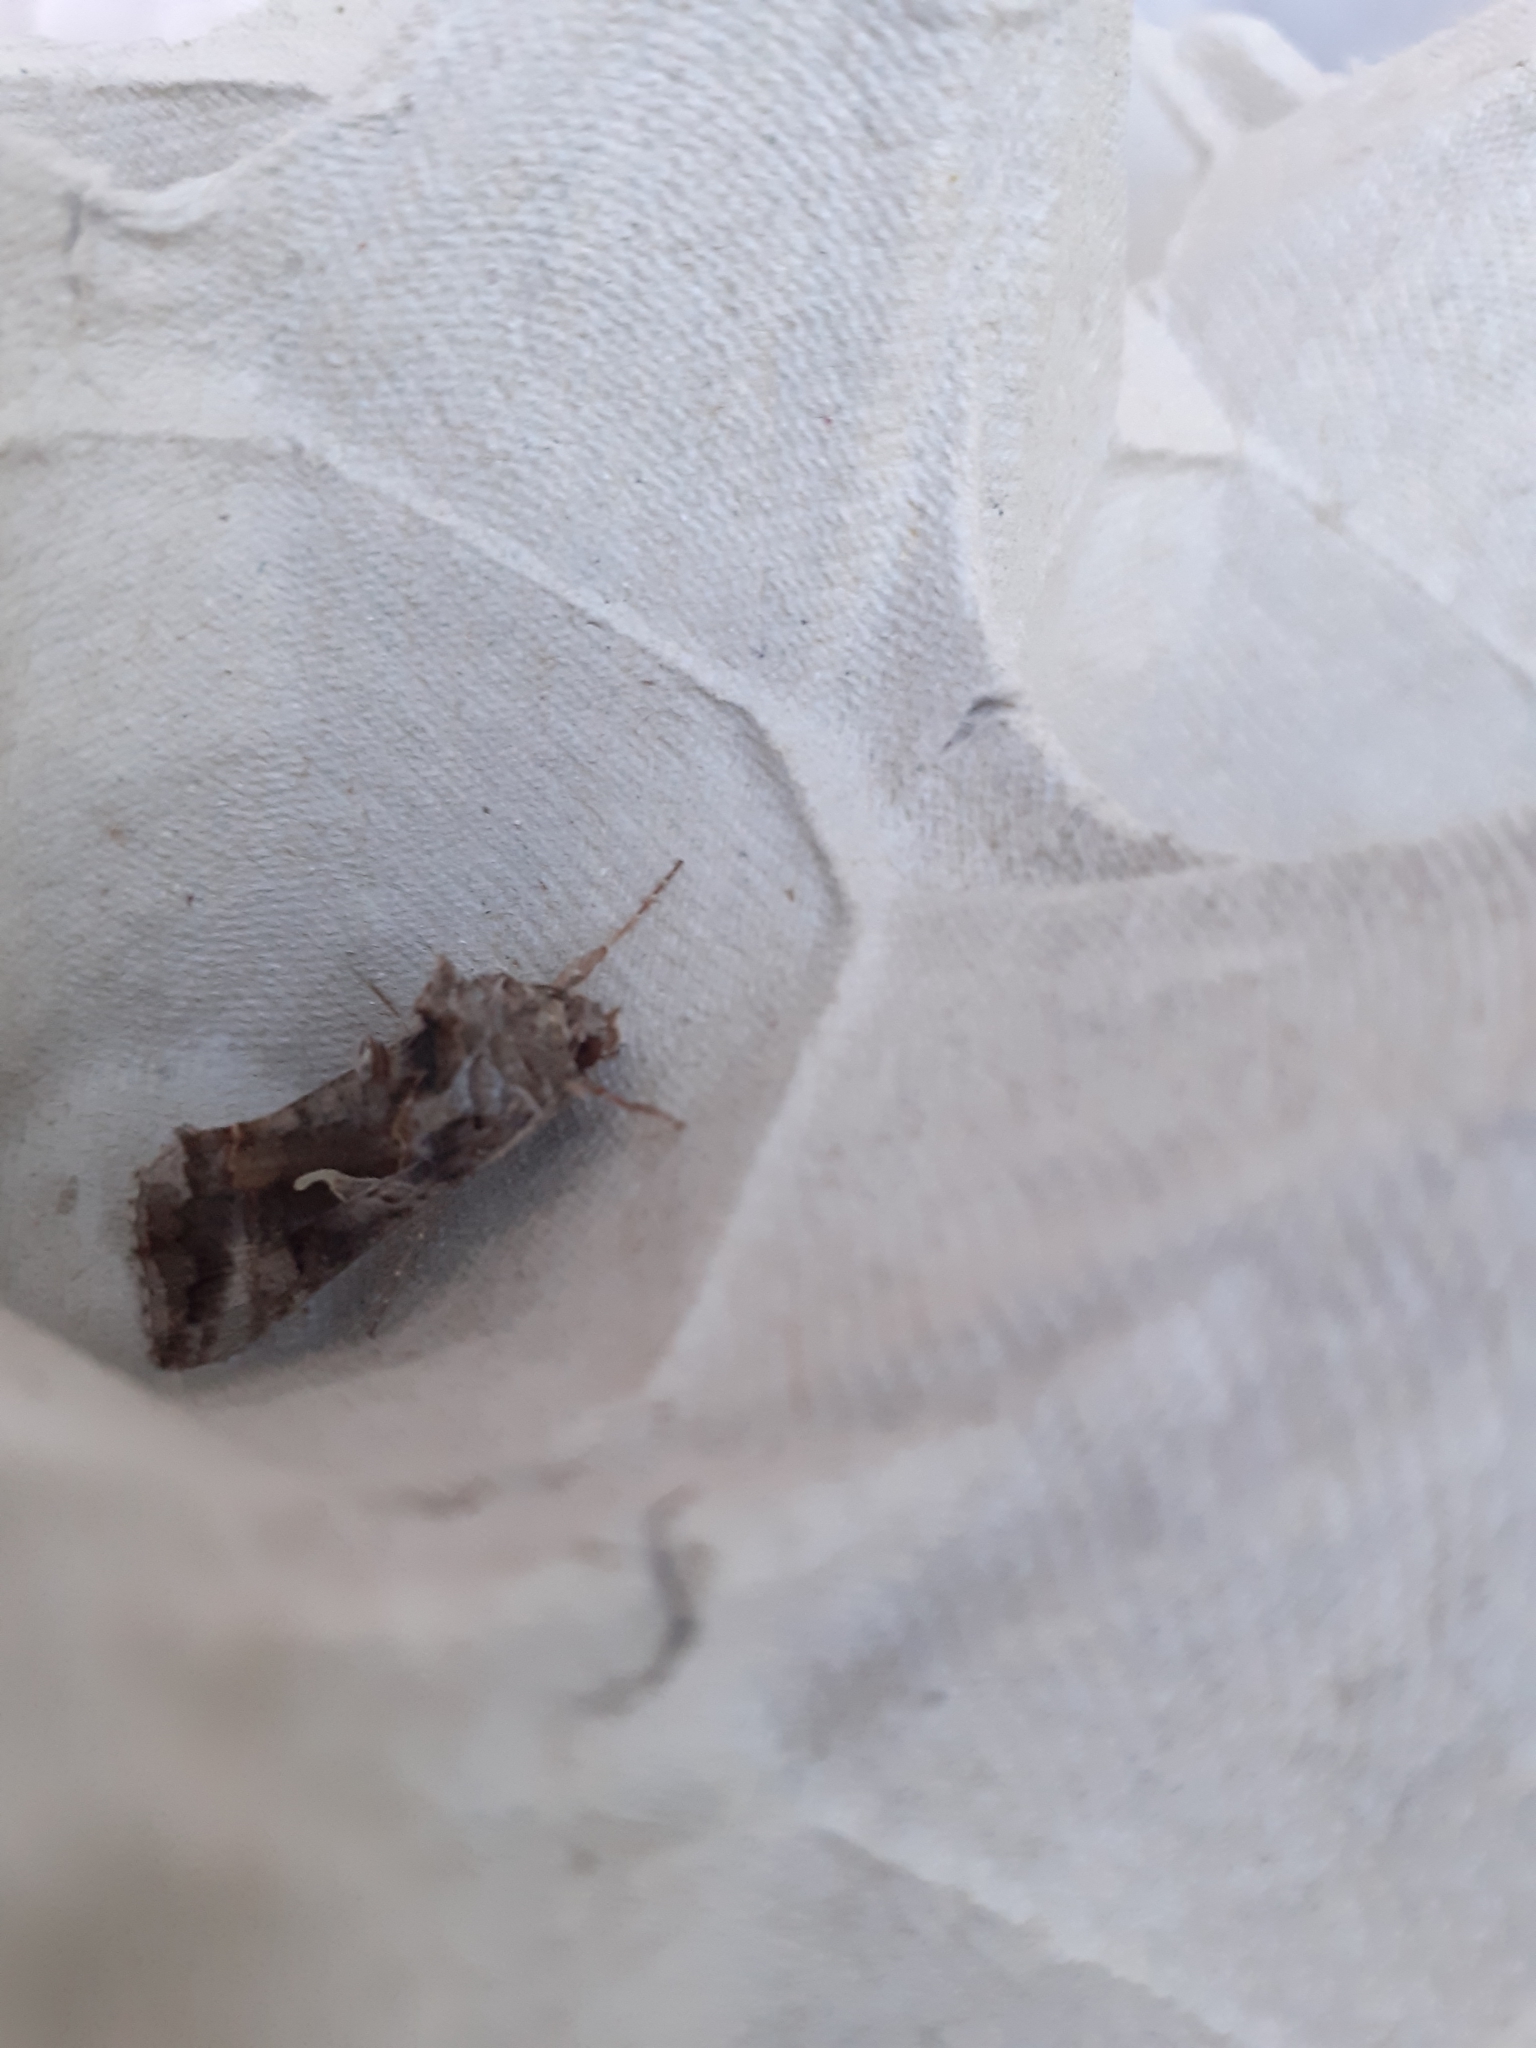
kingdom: Animalia
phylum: Arthropoda
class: Insecta
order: Lepidoptera
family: Noctuidae
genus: Autographa
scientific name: Autographa gamma
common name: Silver y
